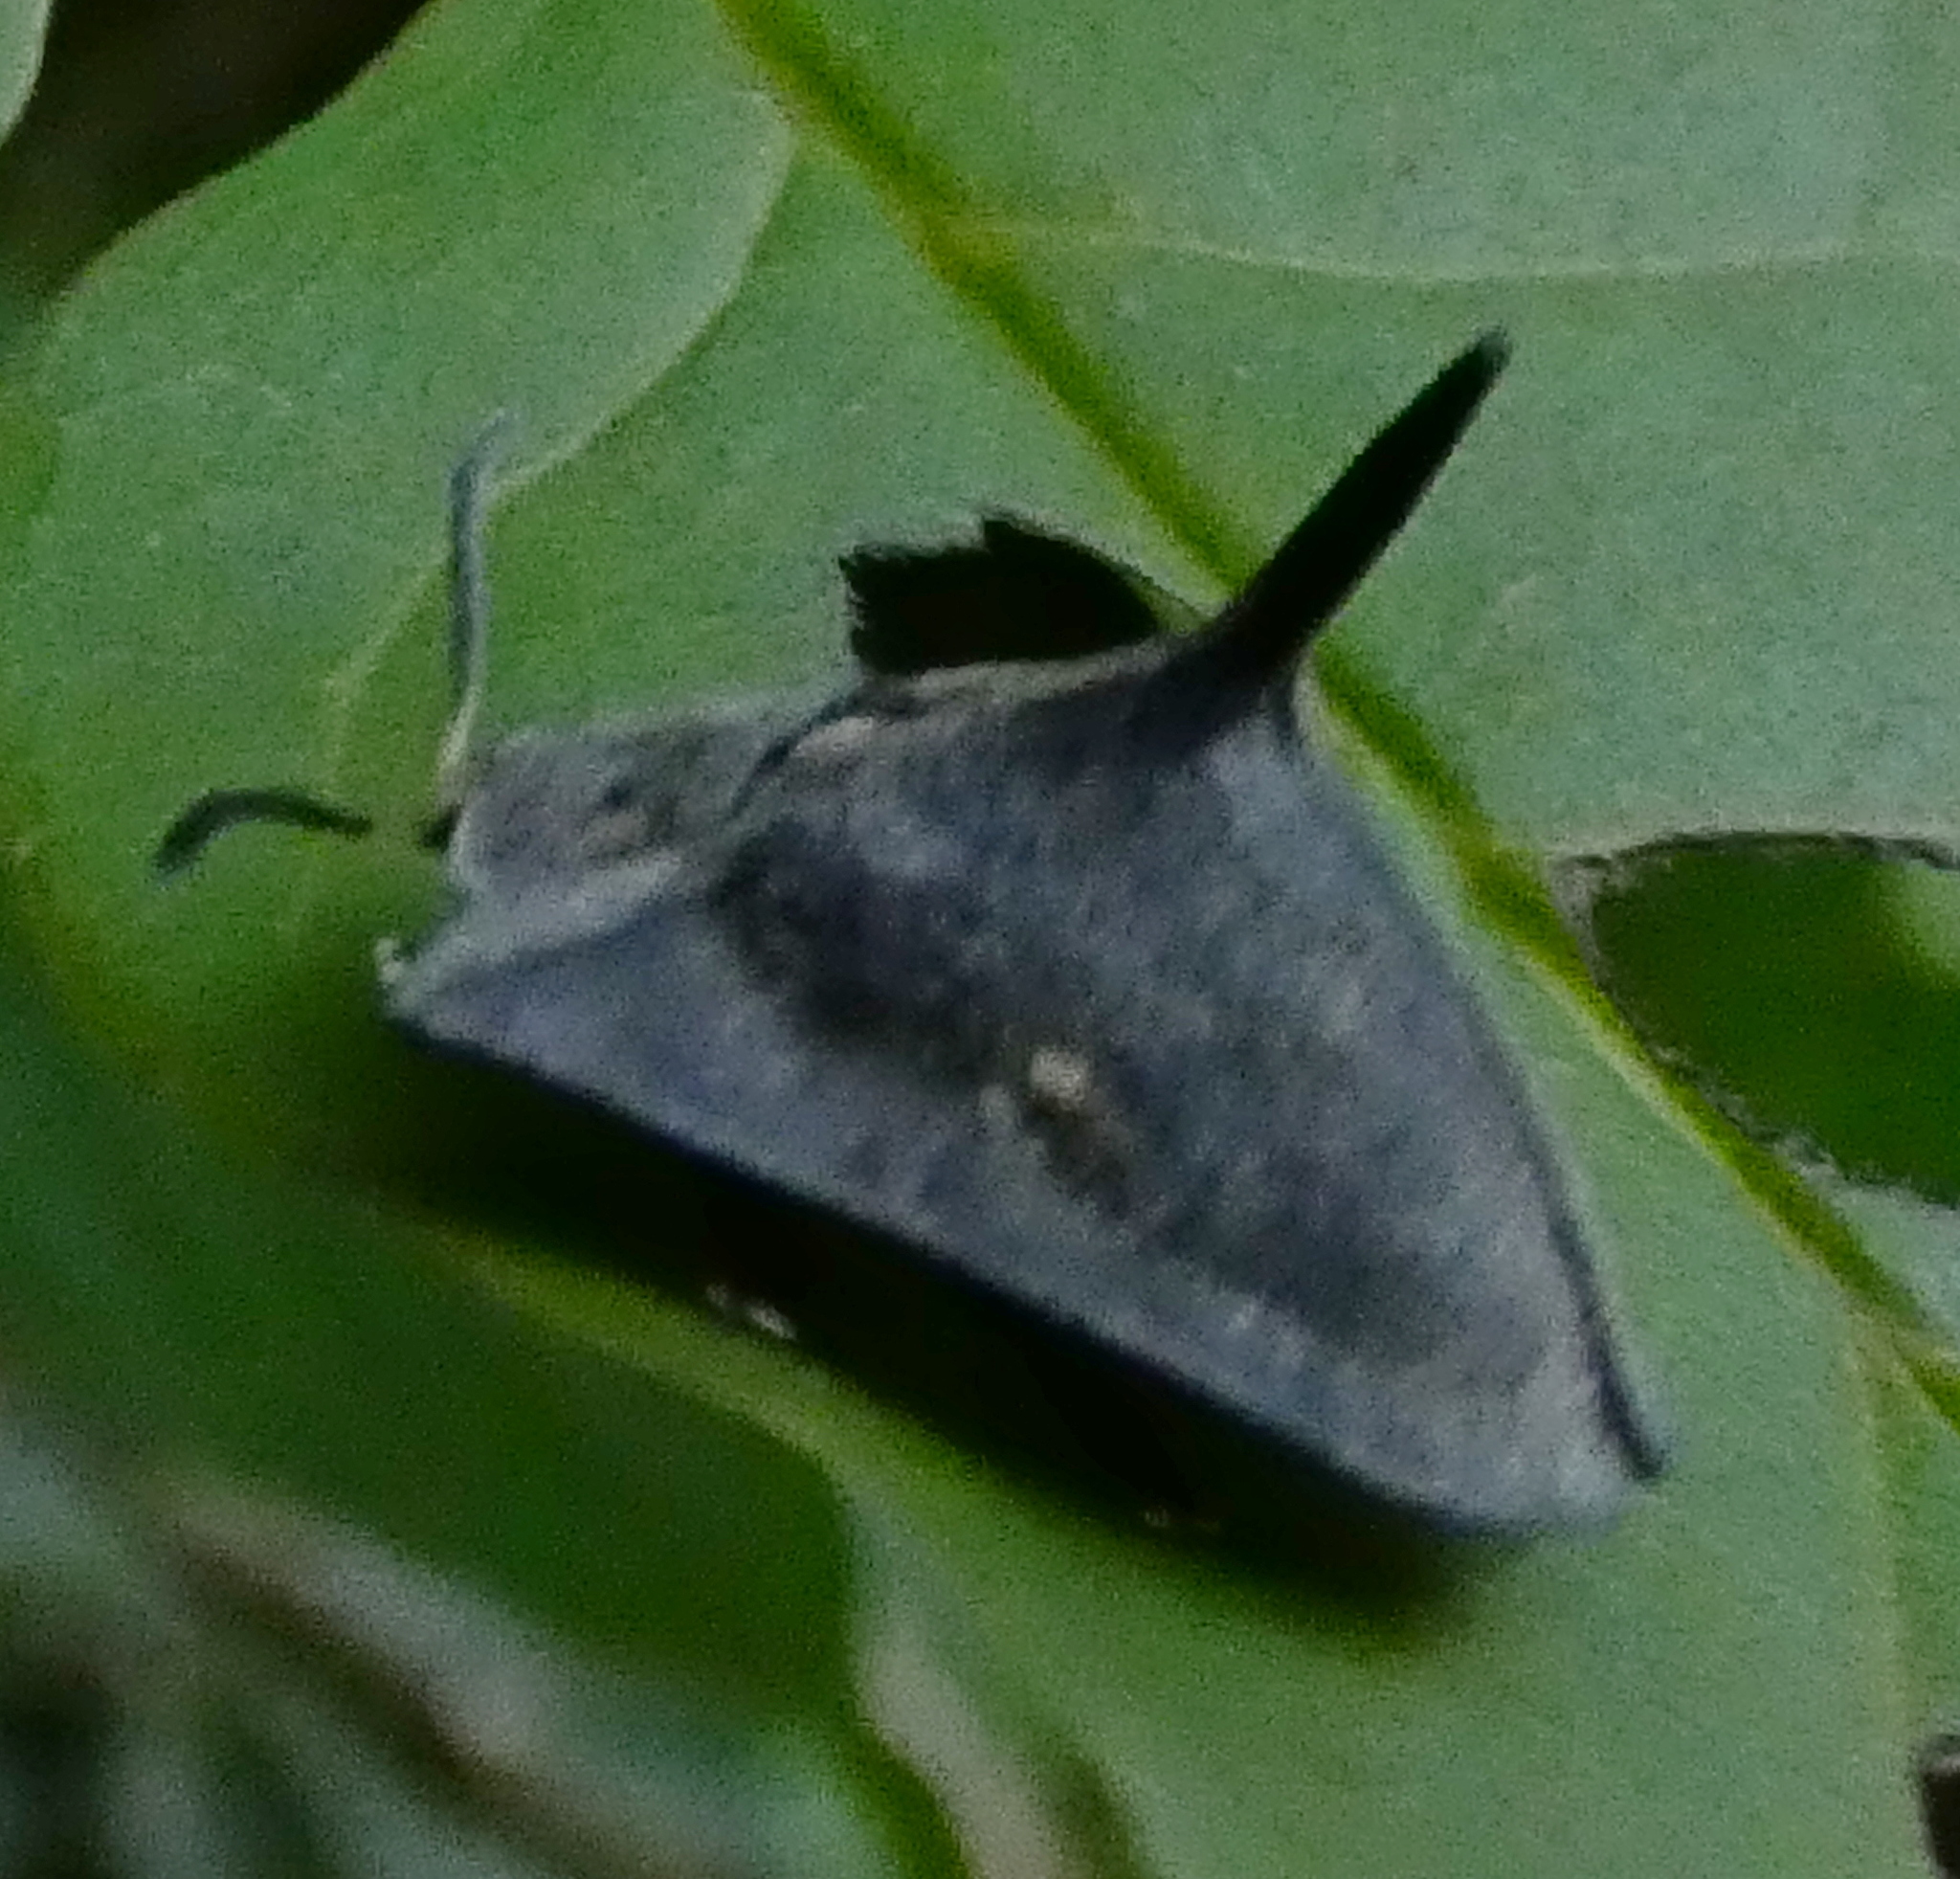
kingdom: Animalia
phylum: Arthropoda
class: Insecta
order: Coleoptera
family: Chrysomelidae
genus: Dorynota
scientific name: Dorynota bidens
